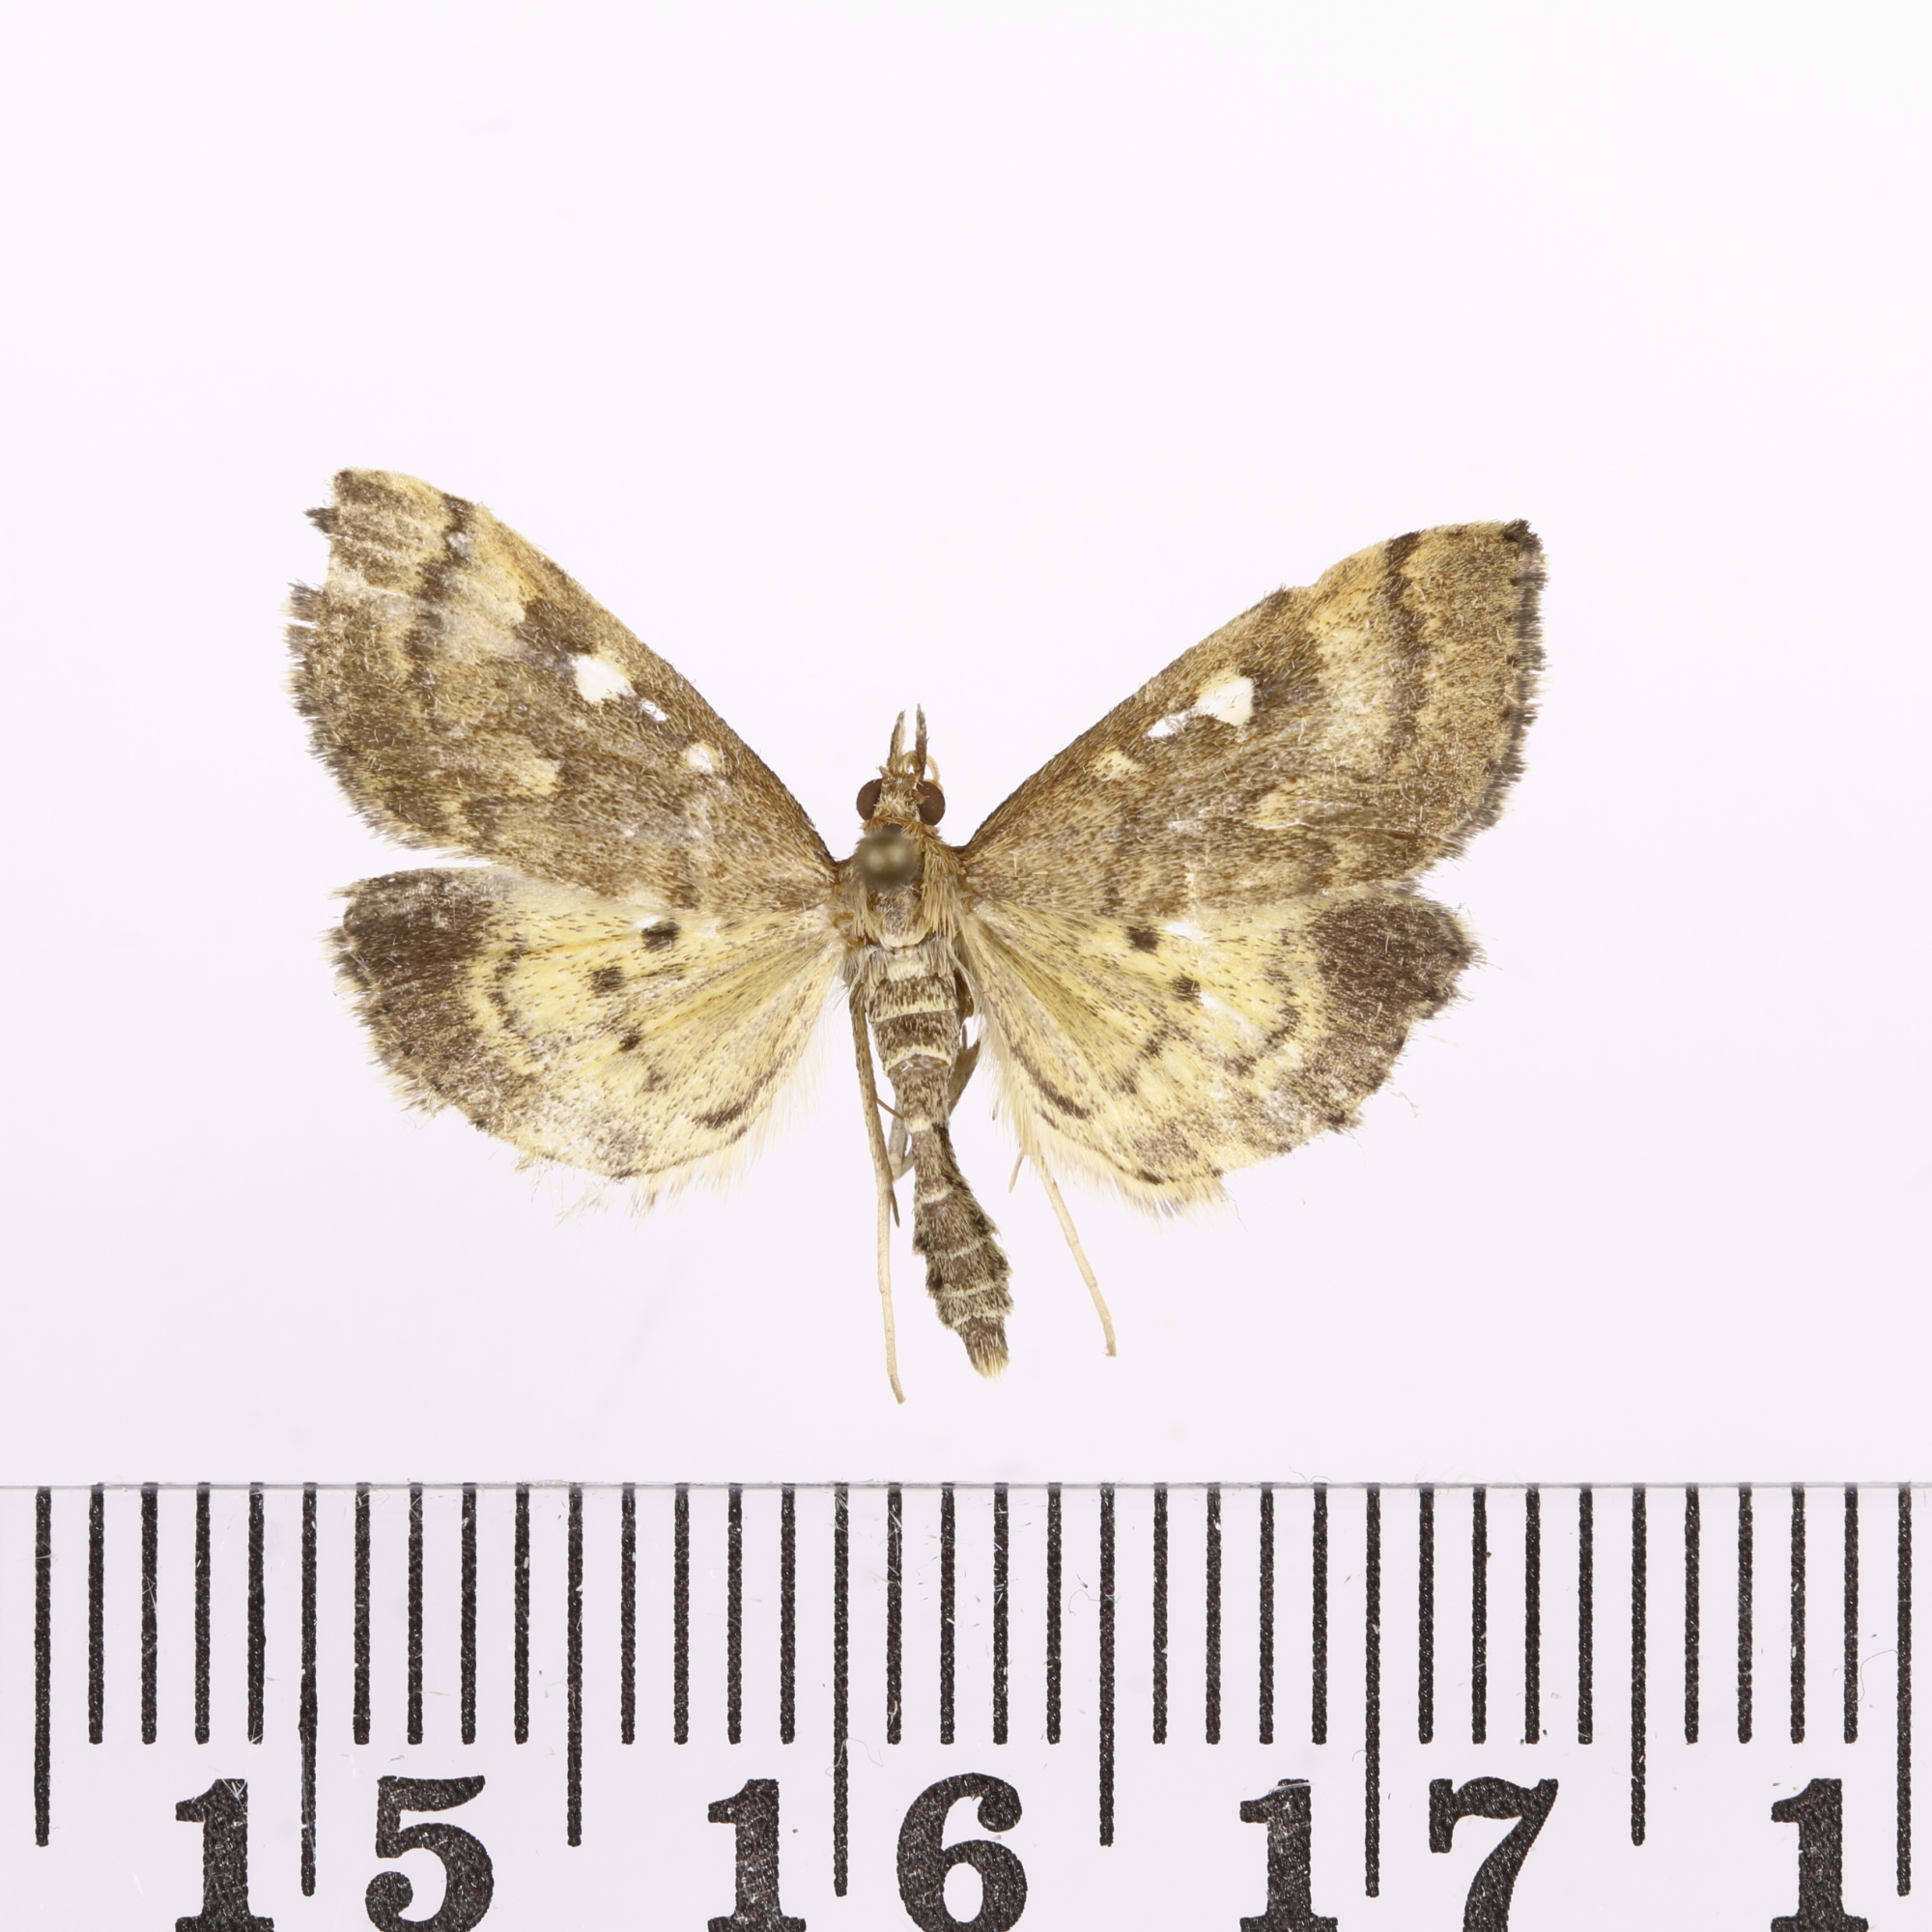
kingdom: Animalia
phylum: Arthropoda
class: Insecta
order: Lepidoptera
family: Crambidae
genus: Udea
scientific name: Udea Mnesictena marmarina
